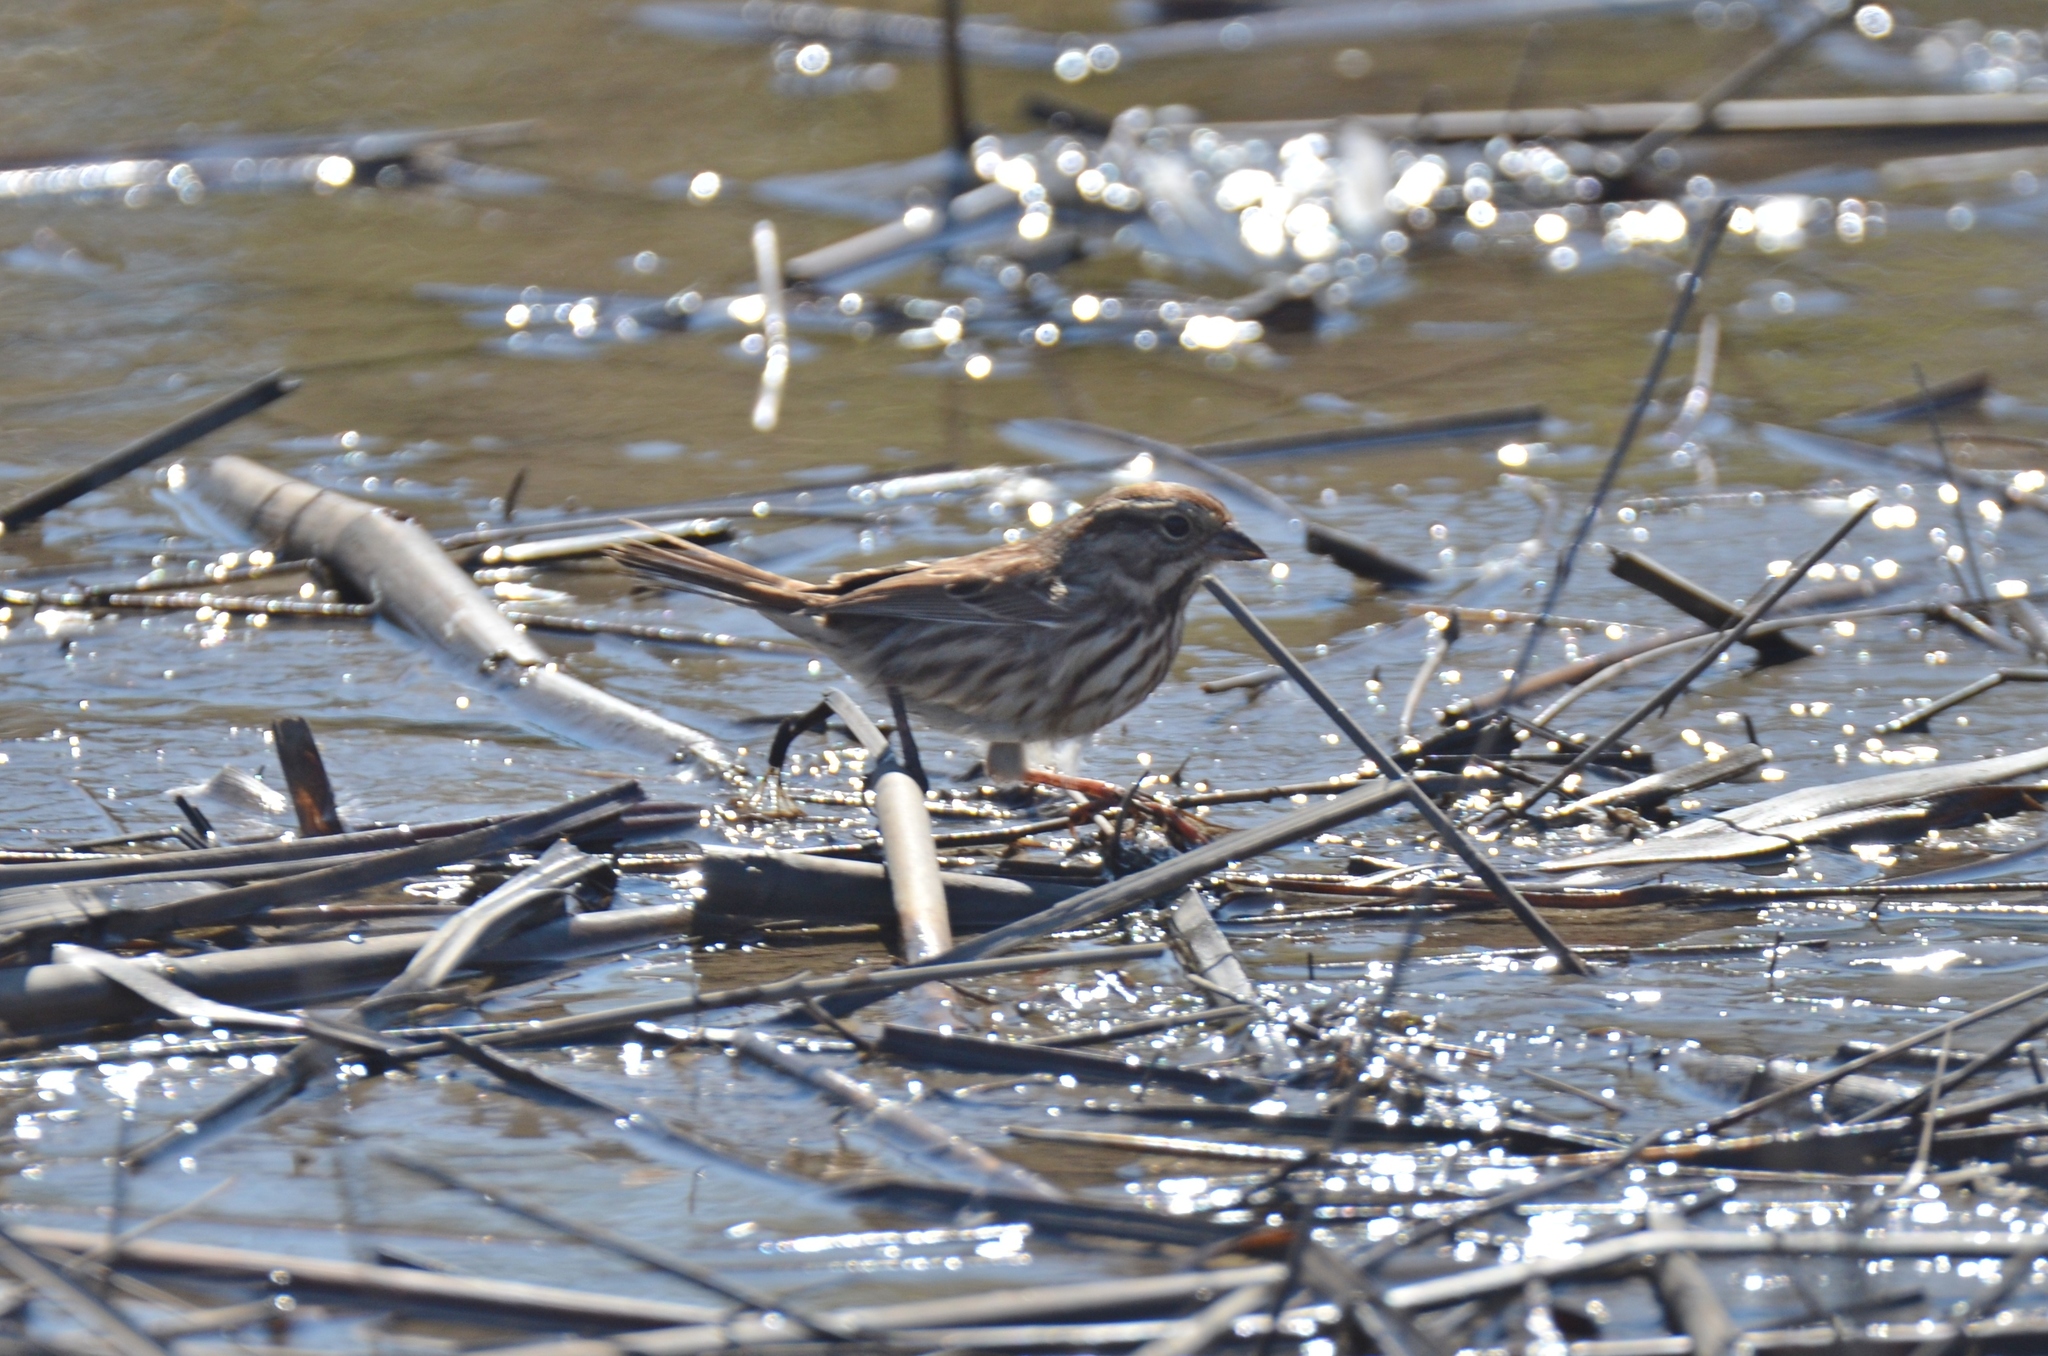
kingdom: Animalia
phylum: Chordata
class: Aves
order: Passeriformes
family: Passerellidae
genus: Melospiza
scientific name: Melospiza melodia
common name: Song sparrow
